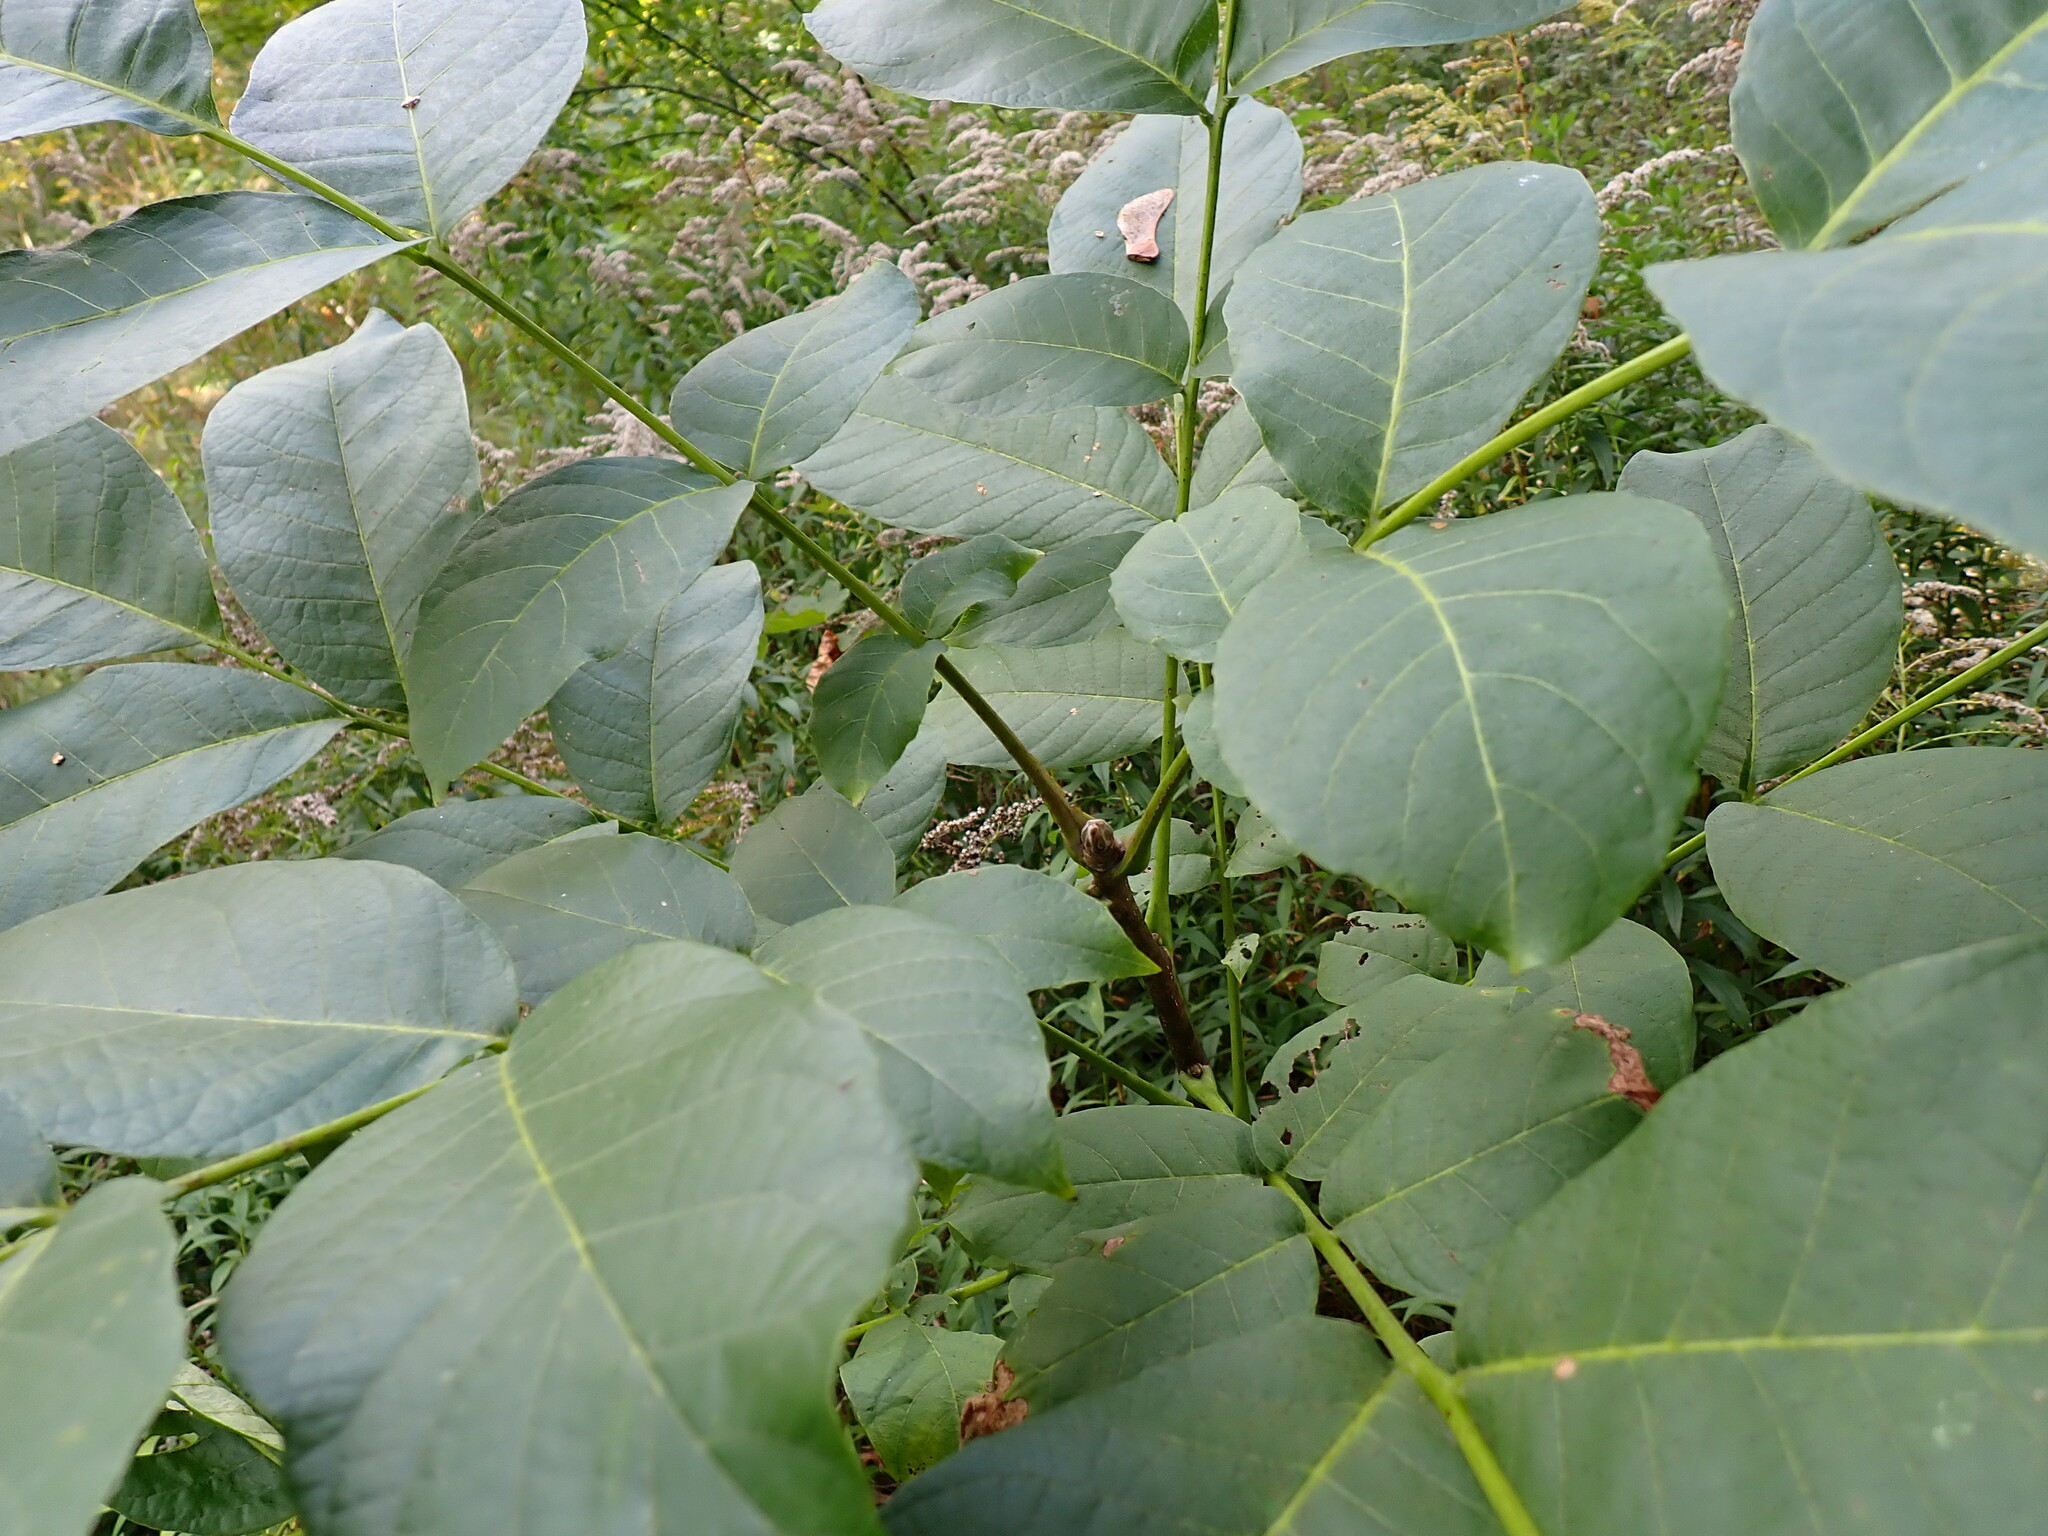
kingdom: Plantae
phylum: Tracheophyta
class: Magnoliopsida
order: Fagales
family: Juglandaceae
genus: Juglans
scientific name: Juglans regia
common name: Walnut
